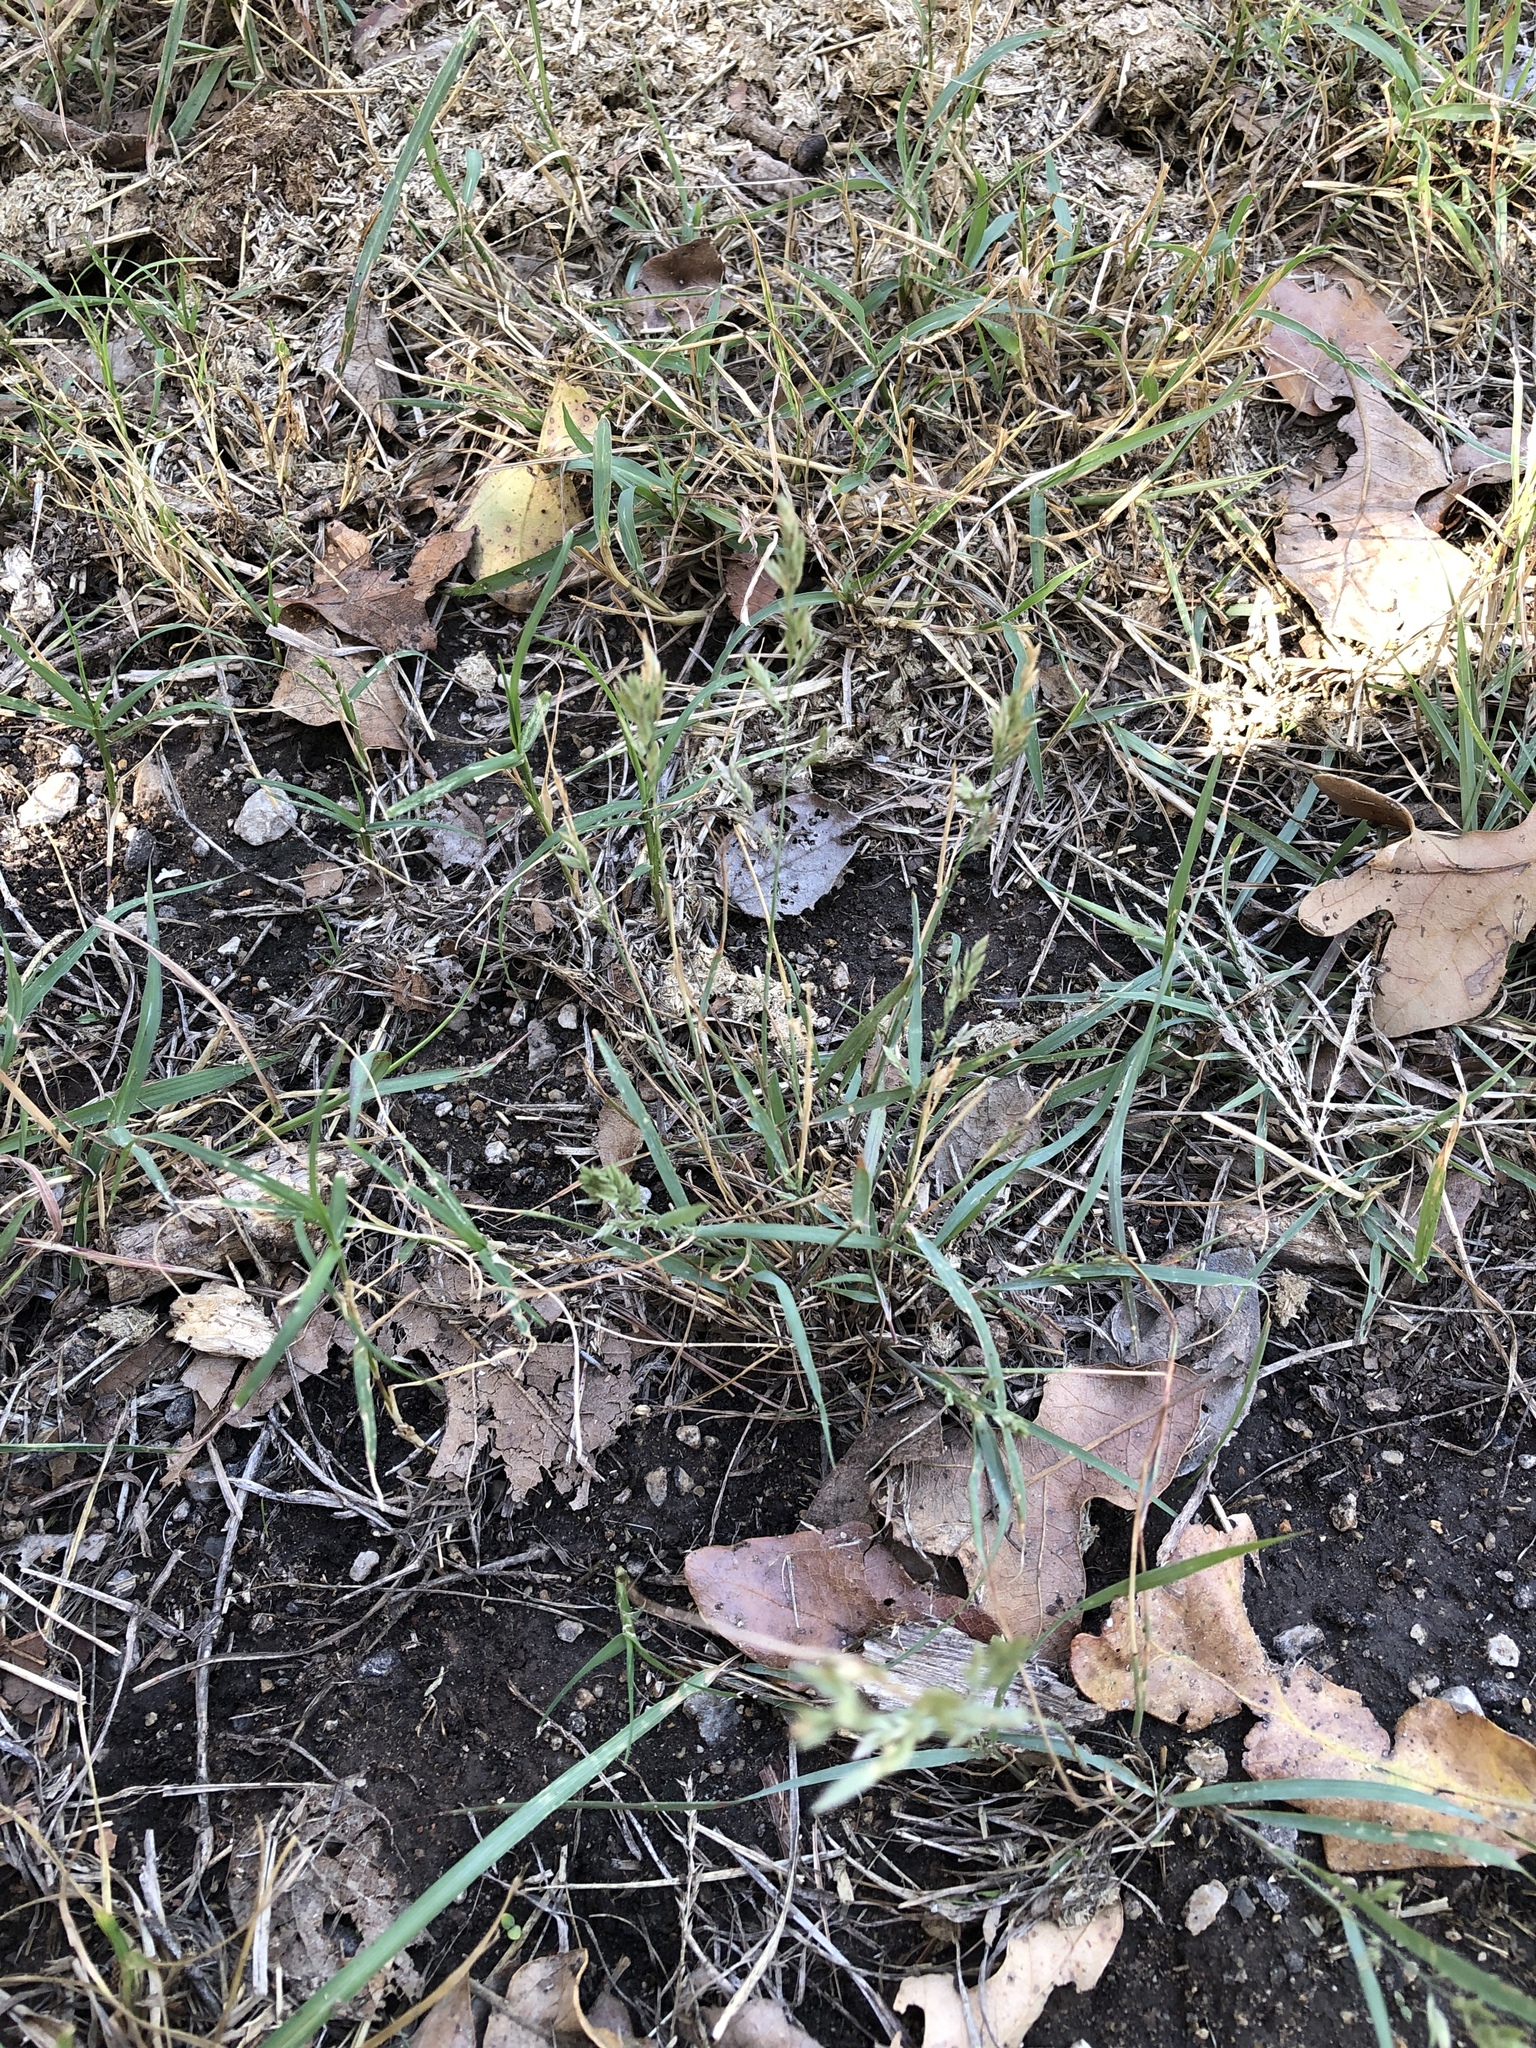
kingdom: Plantae
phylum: Tracheophyta
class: Liliopsida
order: Poales
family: Poaceae
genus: Eragrostis
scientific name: Eragrostis secundiflora
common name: Red love grass
